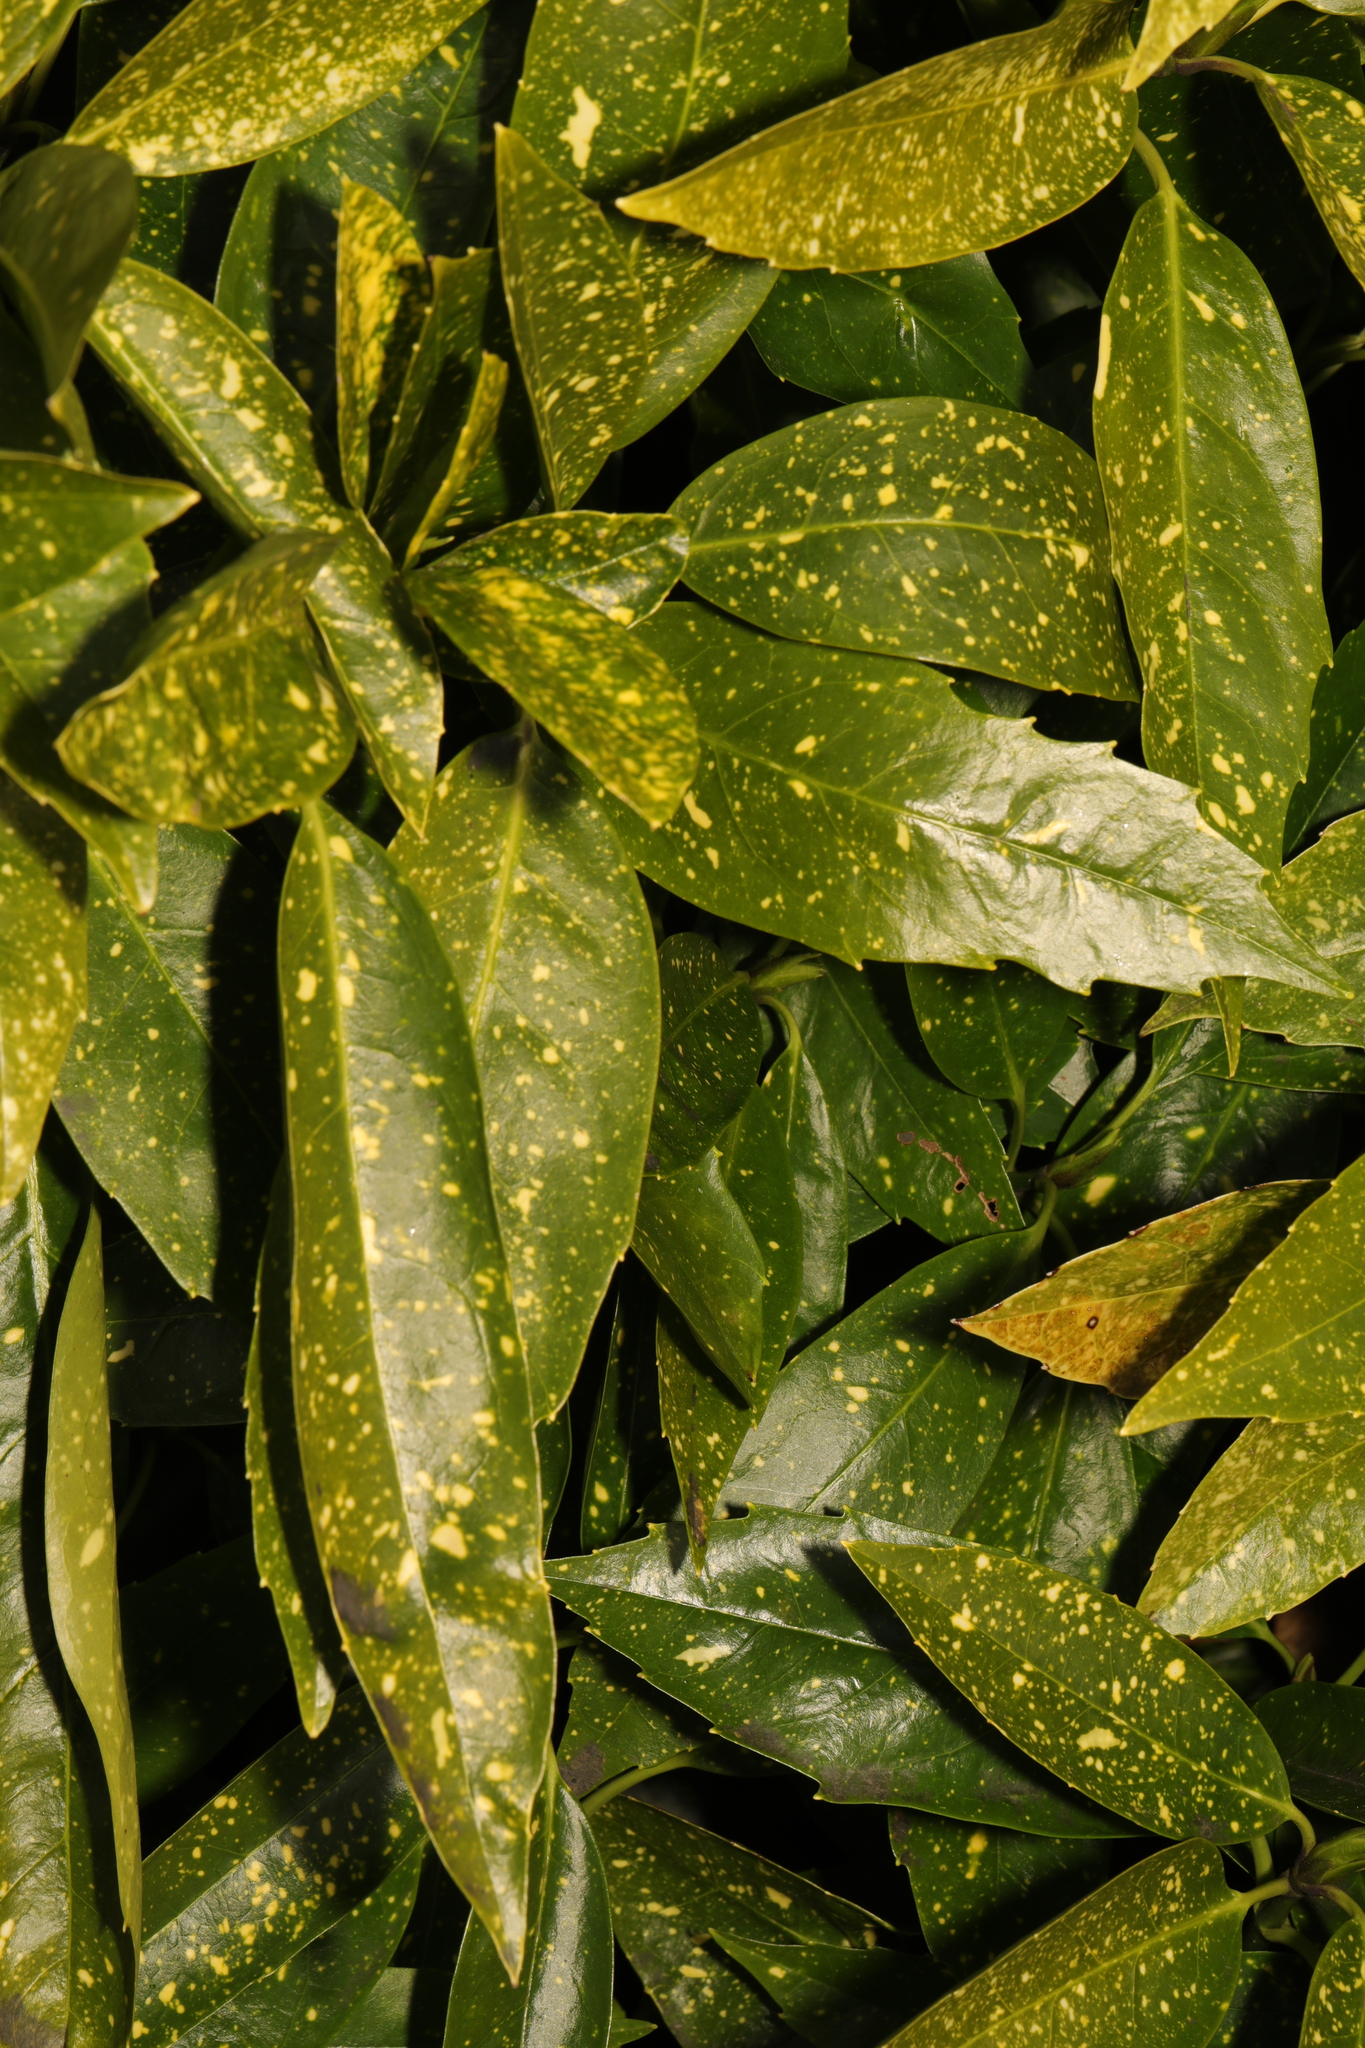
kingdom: Plantae
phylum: Tracheophyta
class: Magnoliopsida
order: Garryales
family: Garryaceae
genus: Aucuba
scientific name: Aucuba japonica
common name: Spotted-laurel
